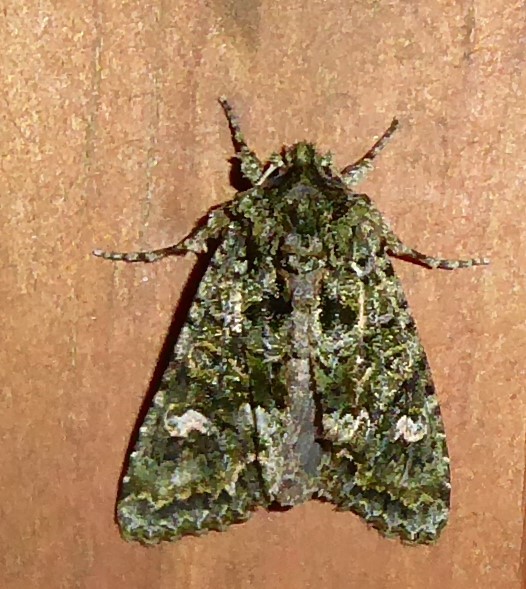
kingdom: Animalia
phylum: Arthropoda
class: Insecta
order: Lepidoptera
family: Noctuidae
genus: Ichneutica
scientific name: Ichneutica
